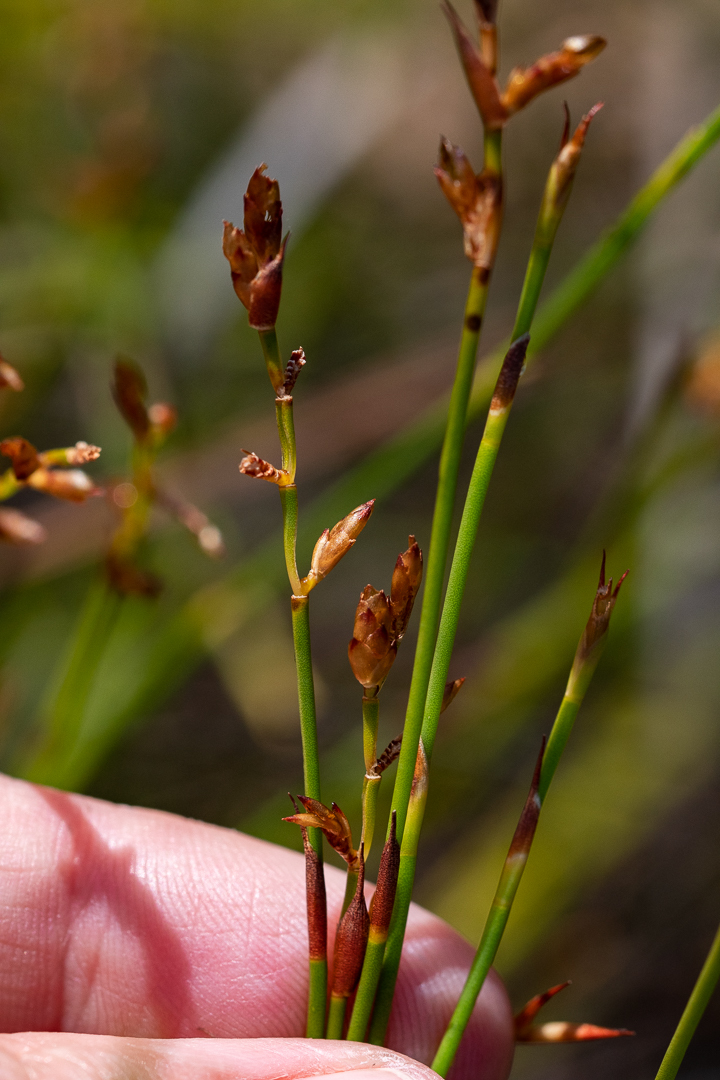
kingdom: Plantae
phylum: Tracheophyta
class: Liliopsida
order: Poales
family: Restionaceae
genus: Mastersiella
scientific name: Mastersiella digitata
